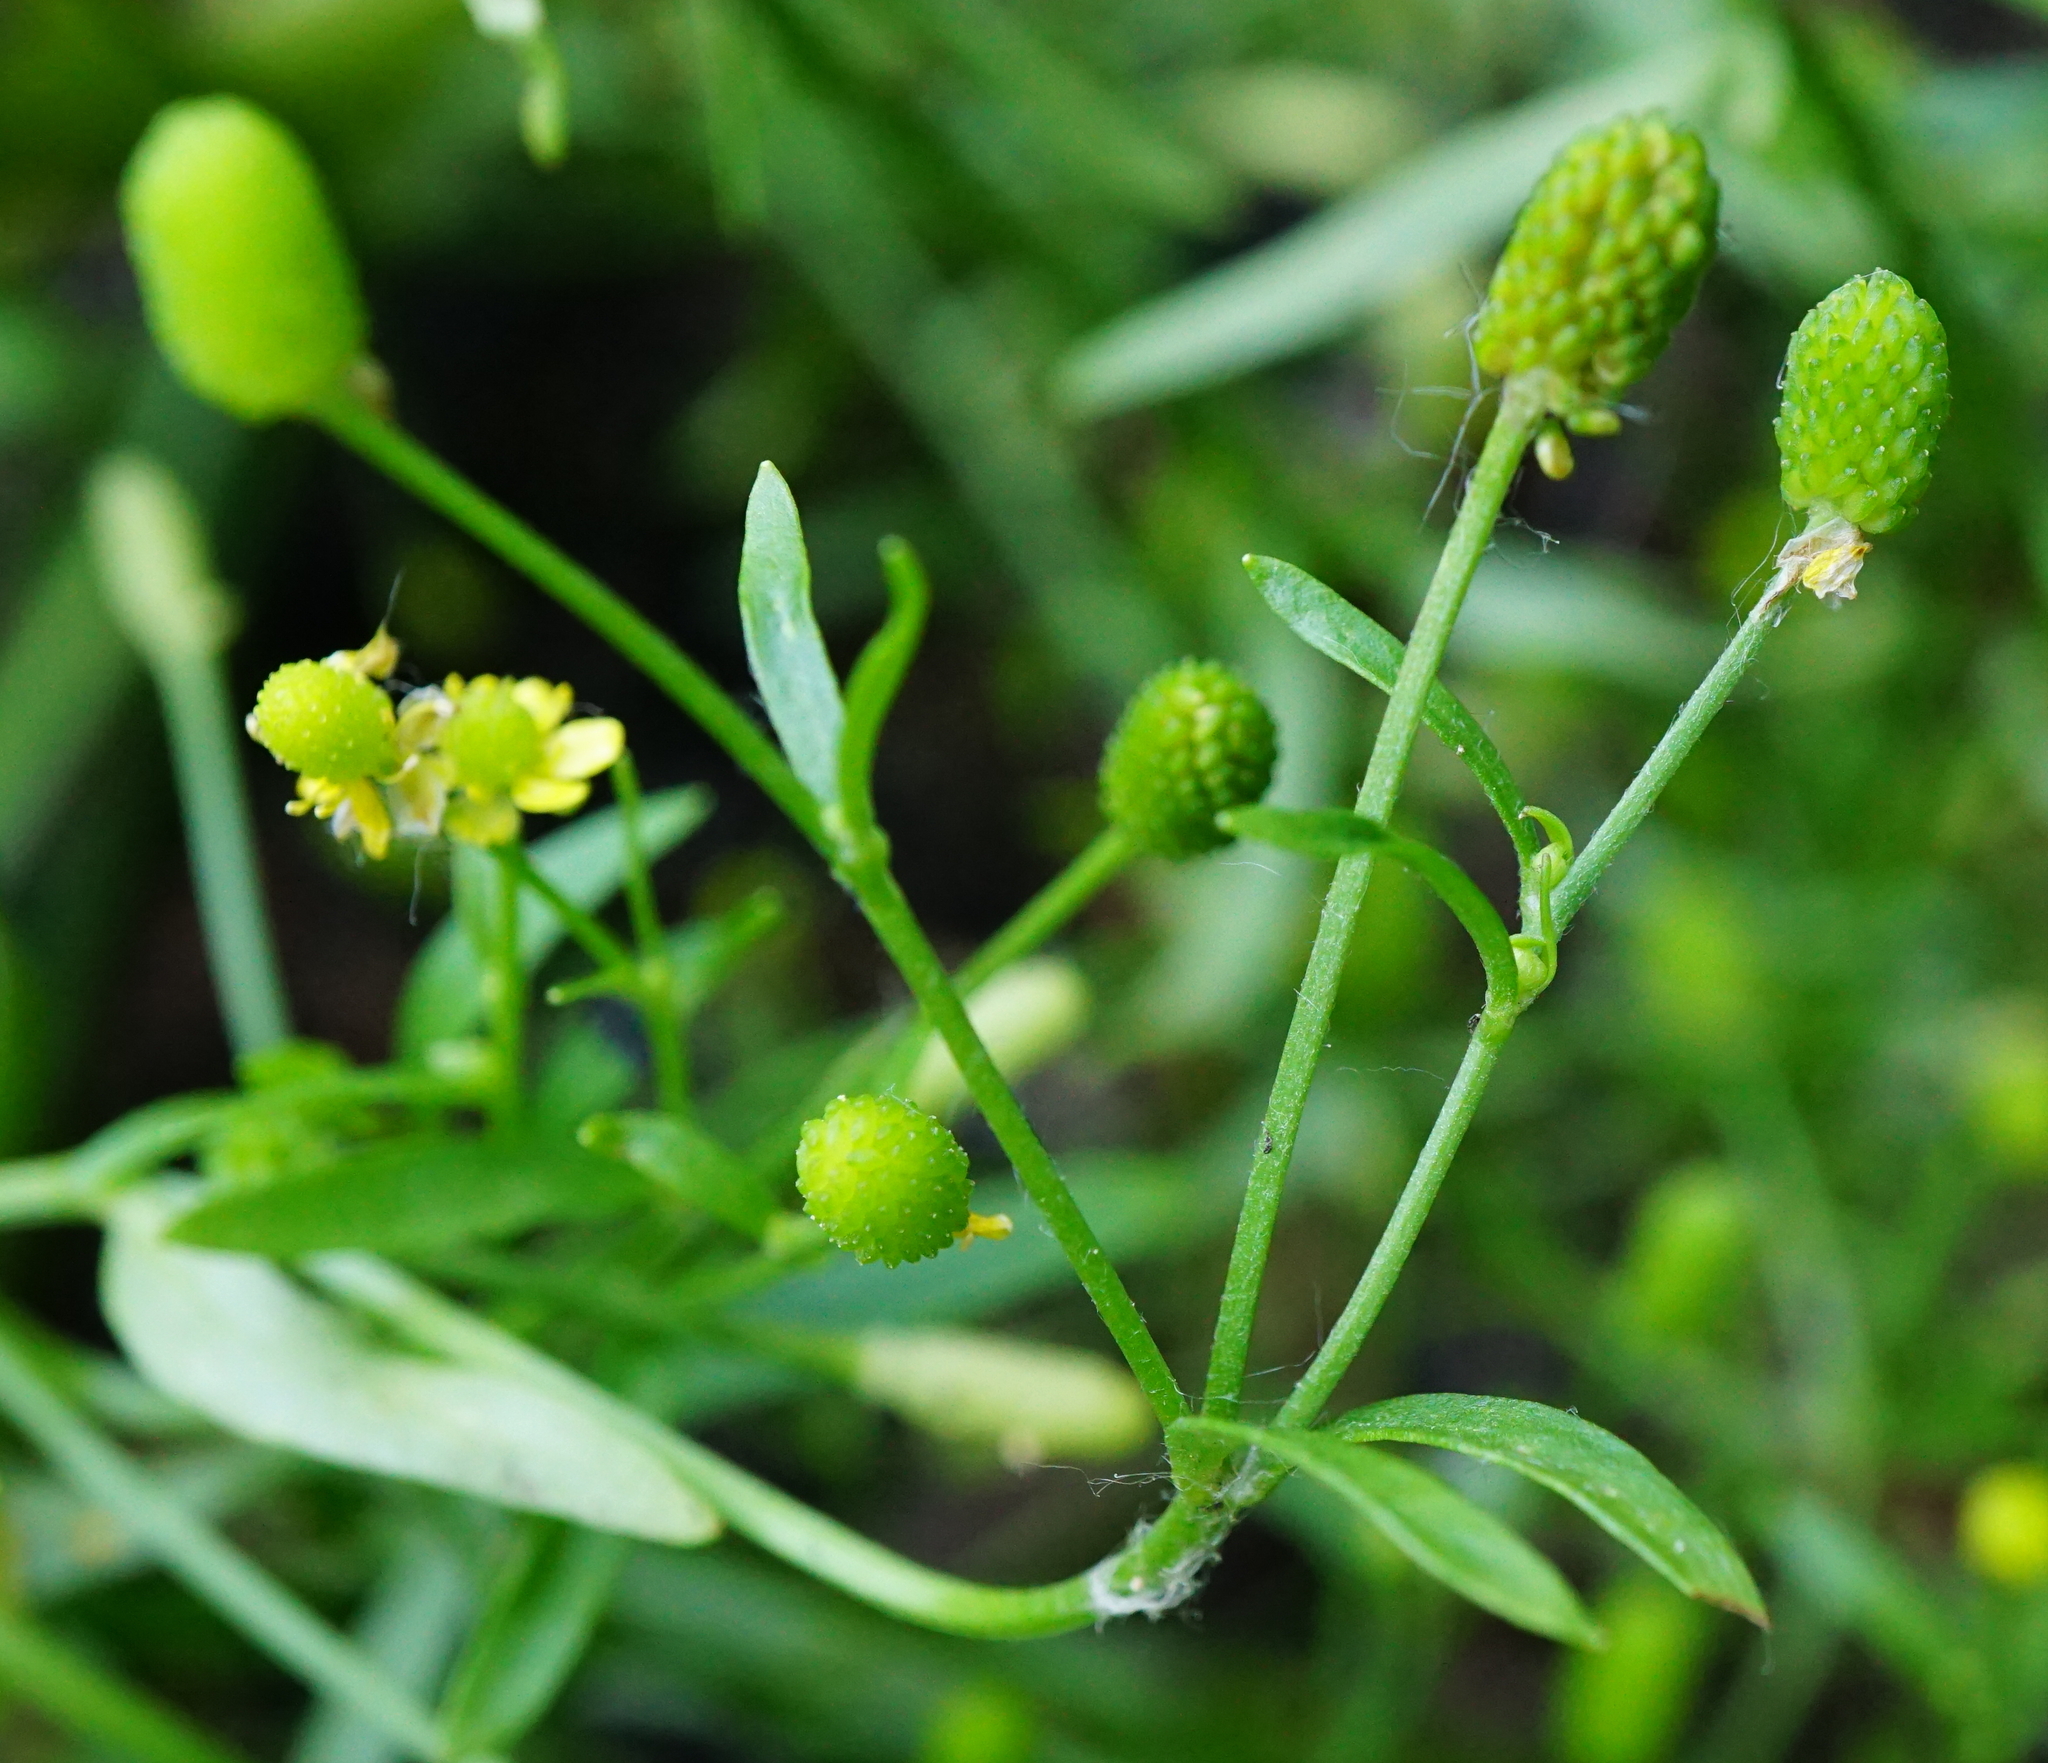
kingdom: Plantae
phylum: Tracheophyta
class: Magnoliopsida
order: Ranunculales
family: Ranunculaceae
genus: Ranunculus
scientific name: Ranunculus sceleratus
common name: Celery-leaved buttercup
